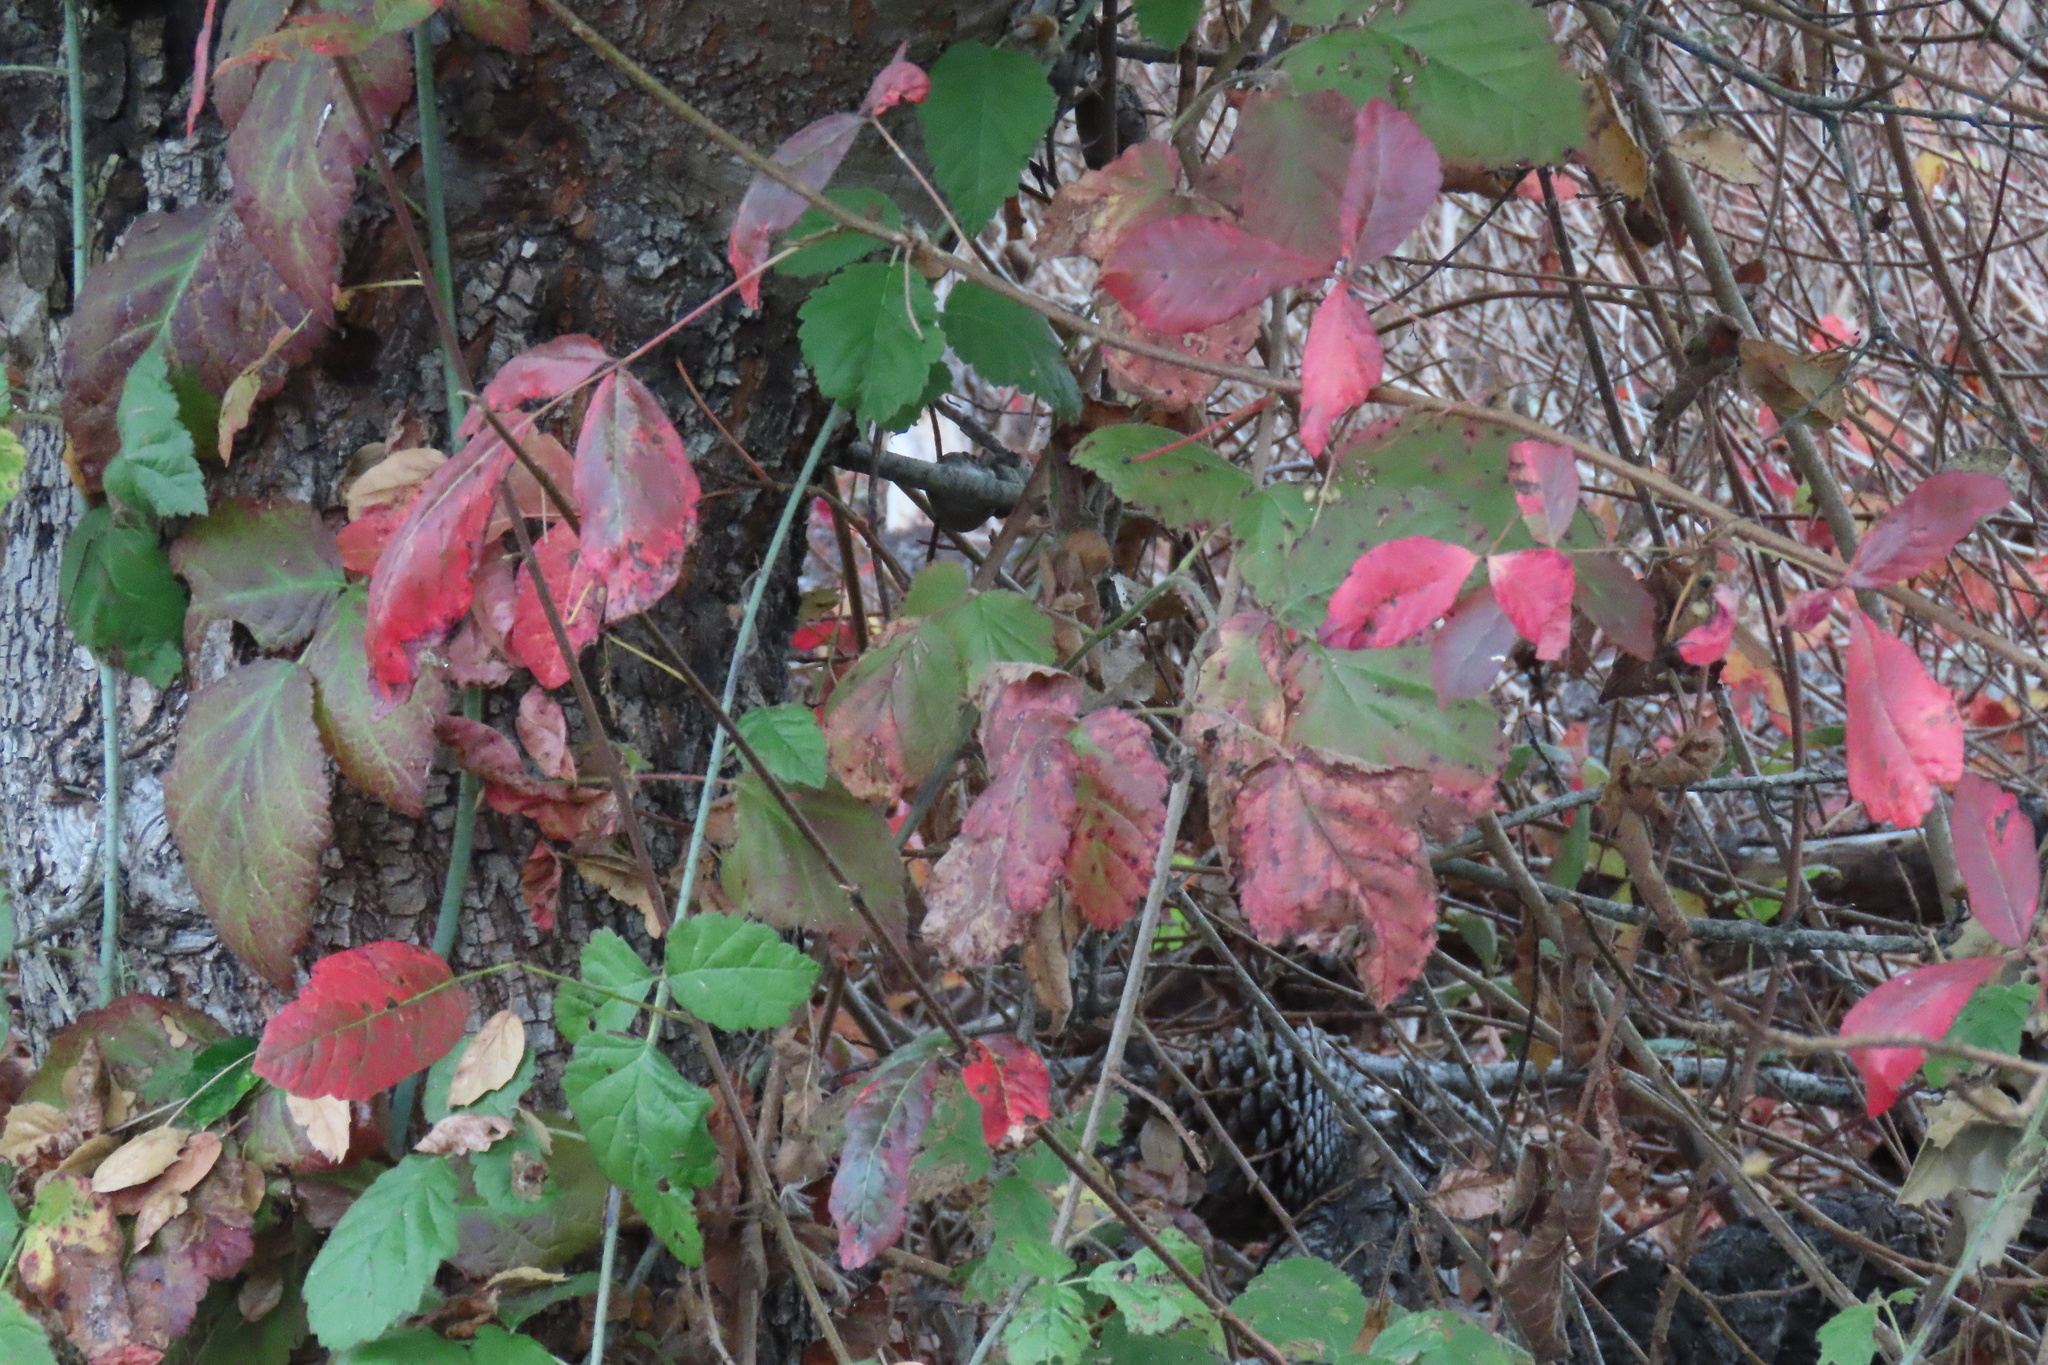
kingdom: Plantae
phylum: Tracheophyta
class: Magnoliopsida
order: Sapindales
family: Anacardiaceae
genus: Toxicodendron
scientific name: Toxicodendron diversilobum
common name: Pacific poison-oak
